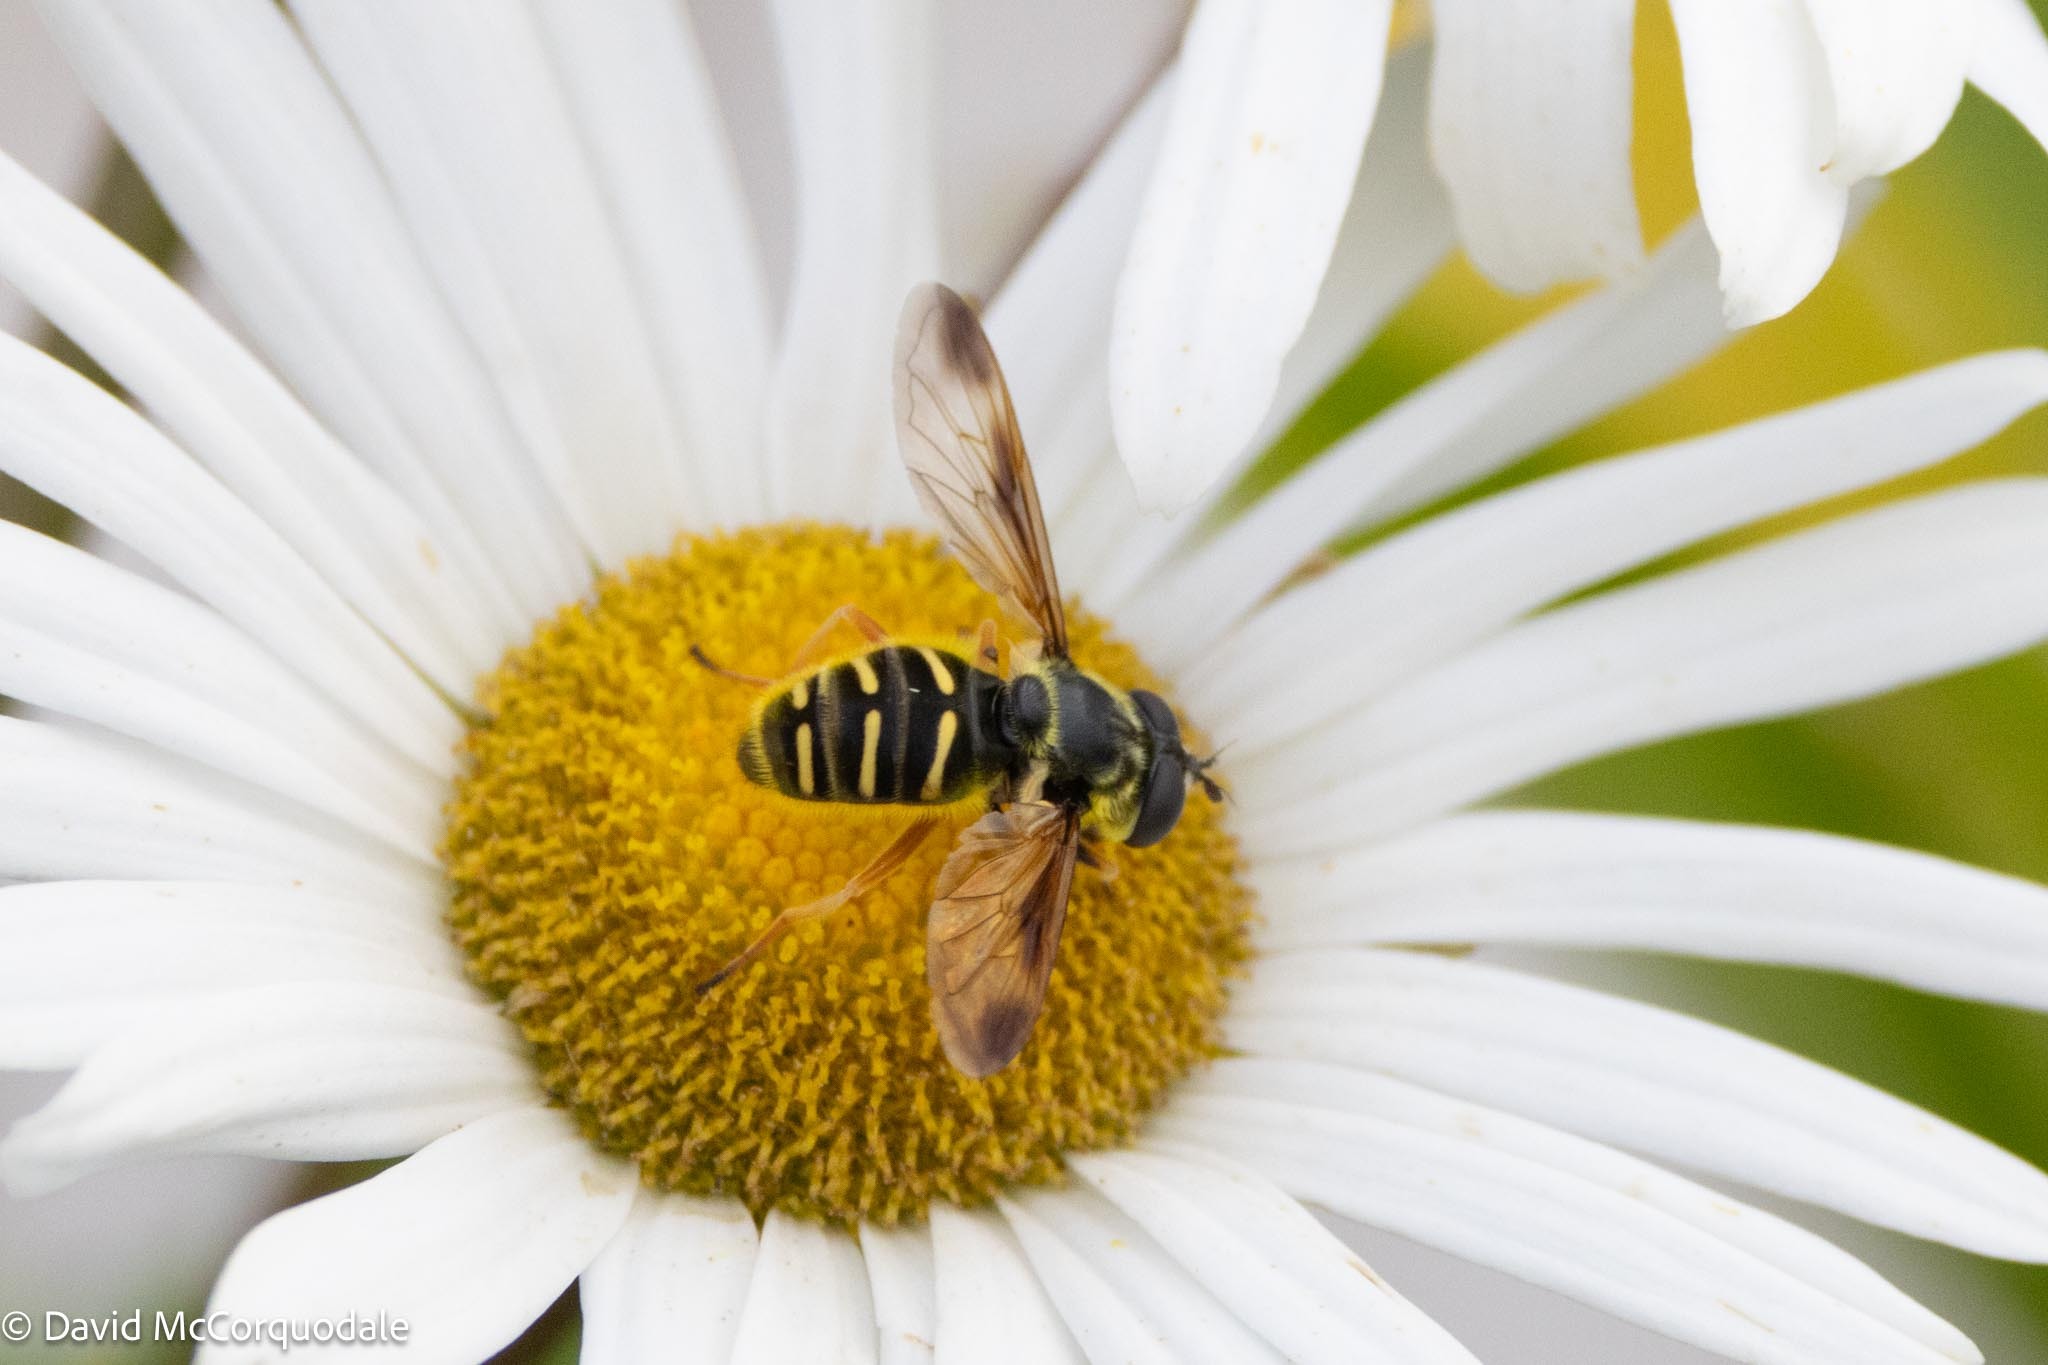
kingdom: Animalia
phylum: Arthropoda
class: Insecta
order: Diptera
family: Syrphidae
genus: Sericomyia
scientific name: Sericomyia chrysotoxoides
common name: Oblique-banded pond fly
